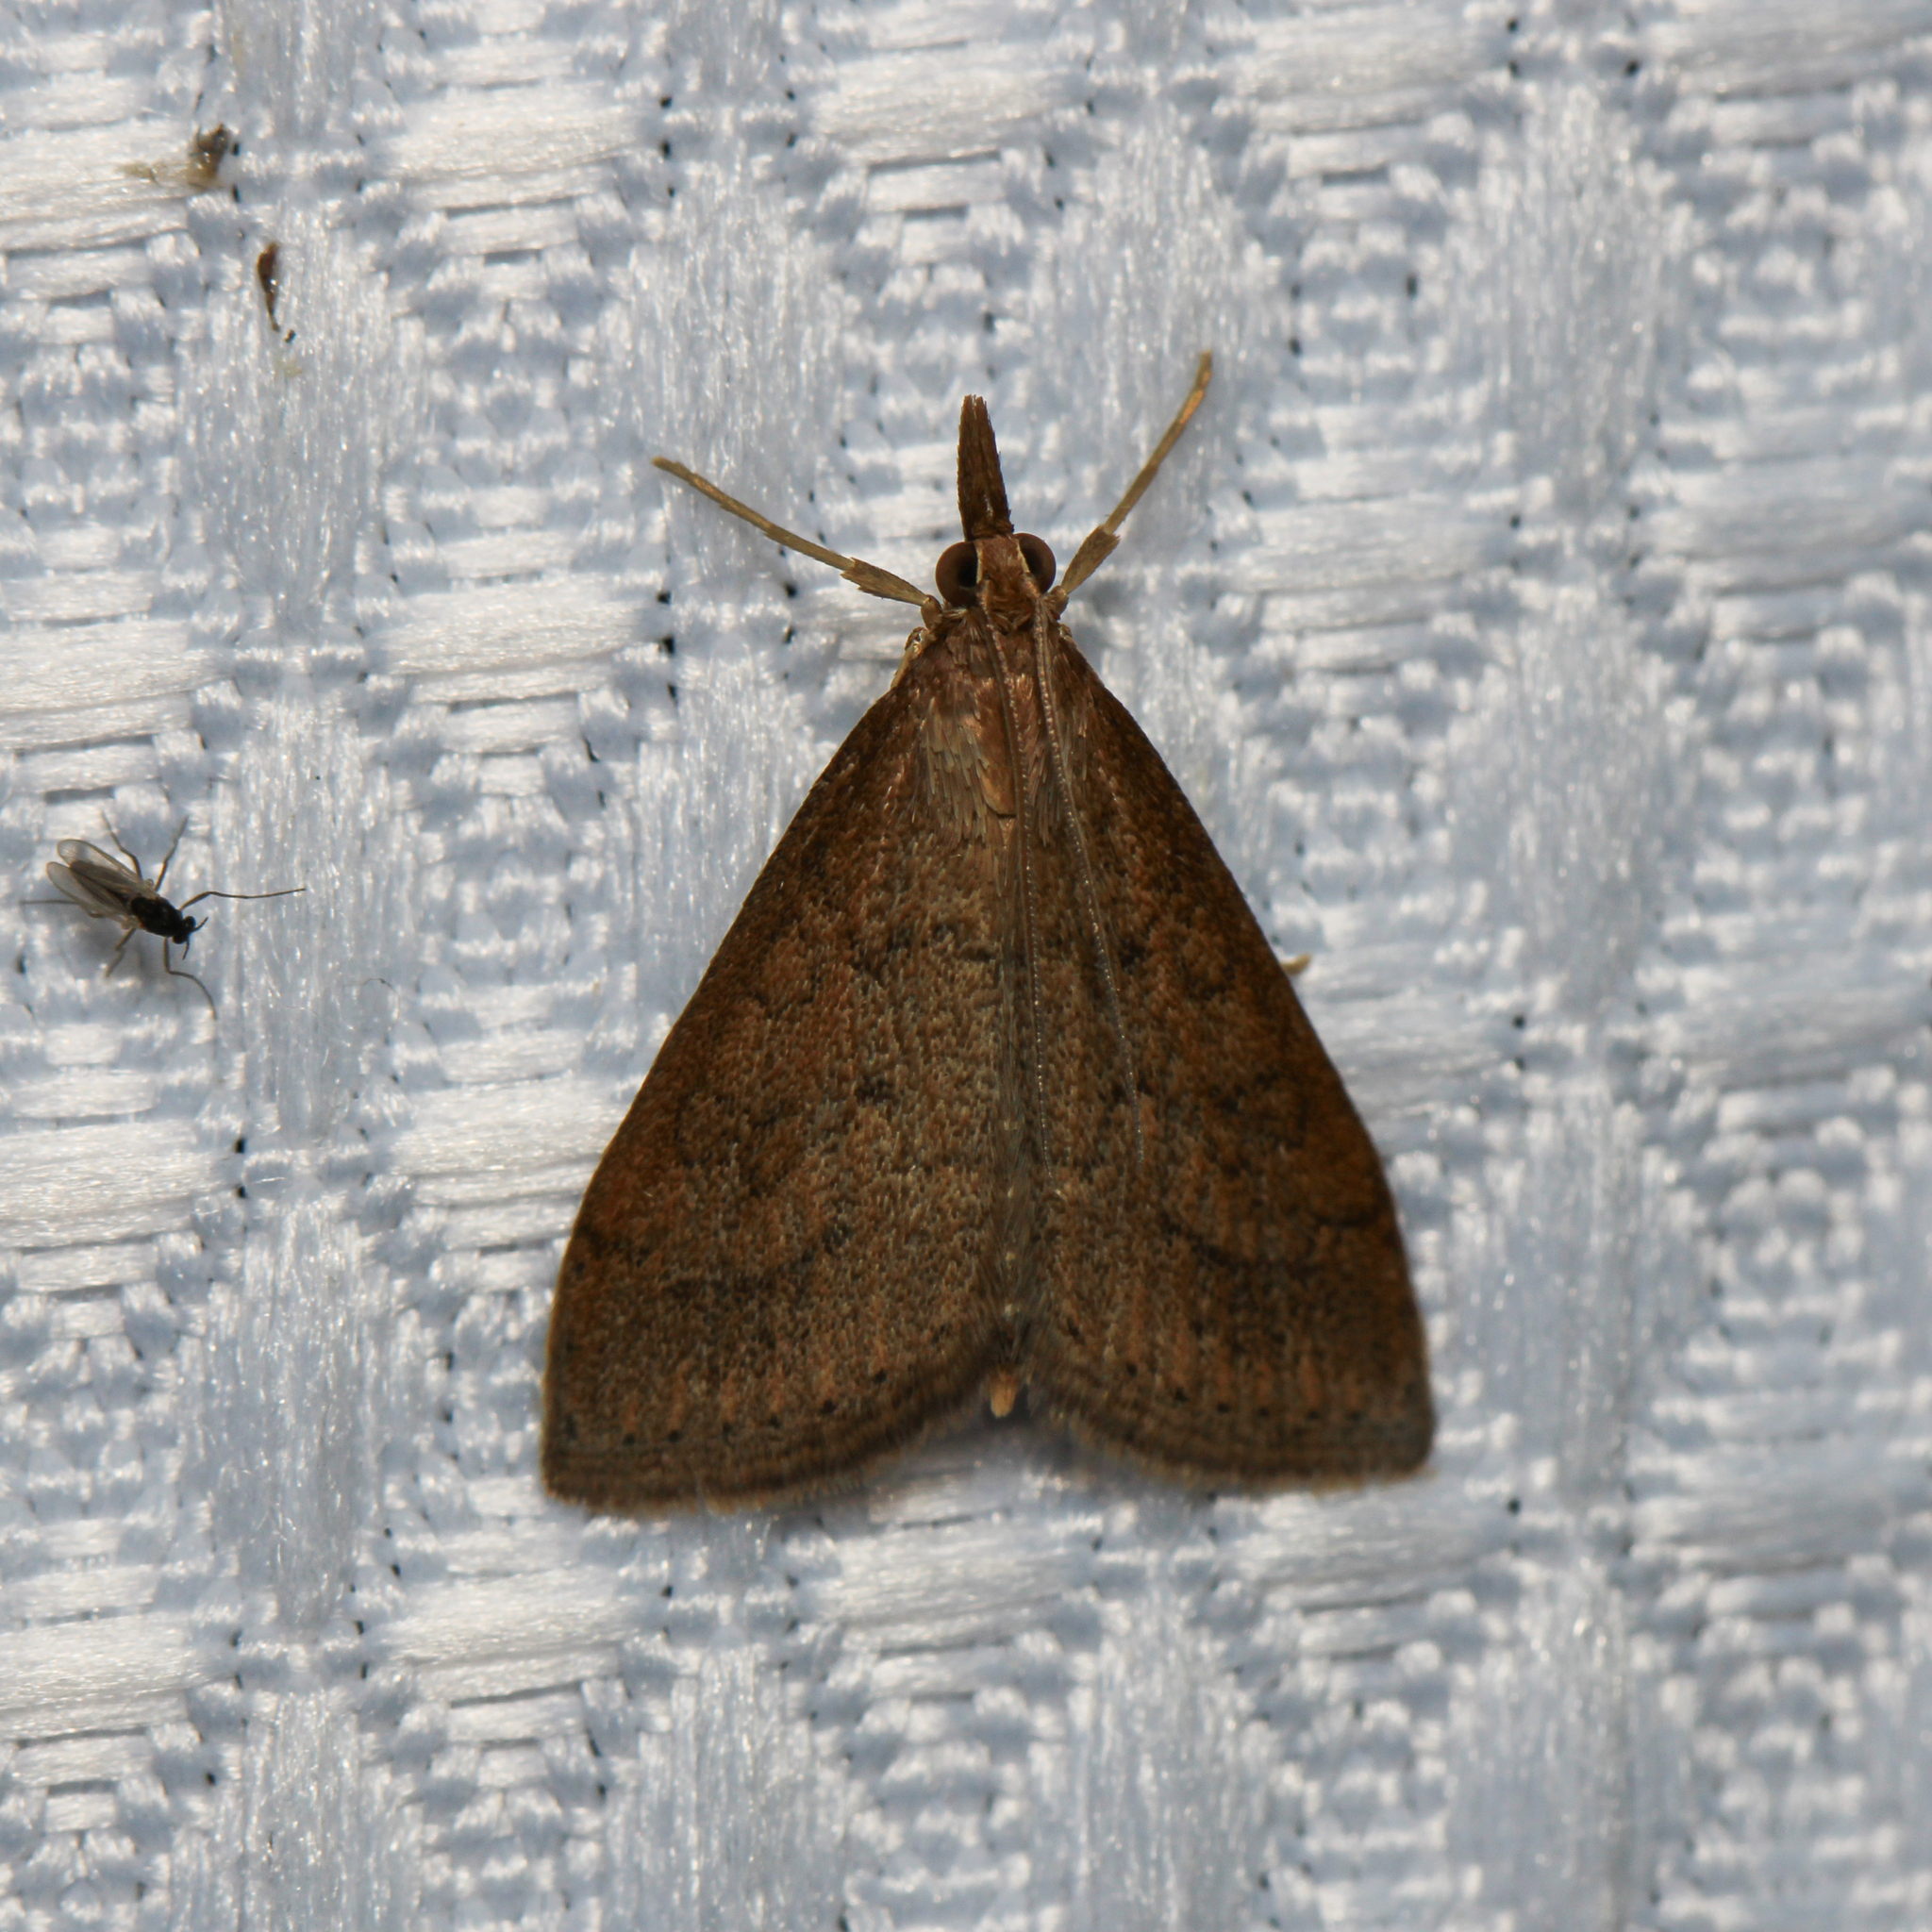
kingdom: Animalia
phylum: Arthropoda
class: Insecta
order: Lepidoptera
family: Crambidae
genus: Udea
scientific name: Udea rubigalis
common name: Celery leaftier moth
